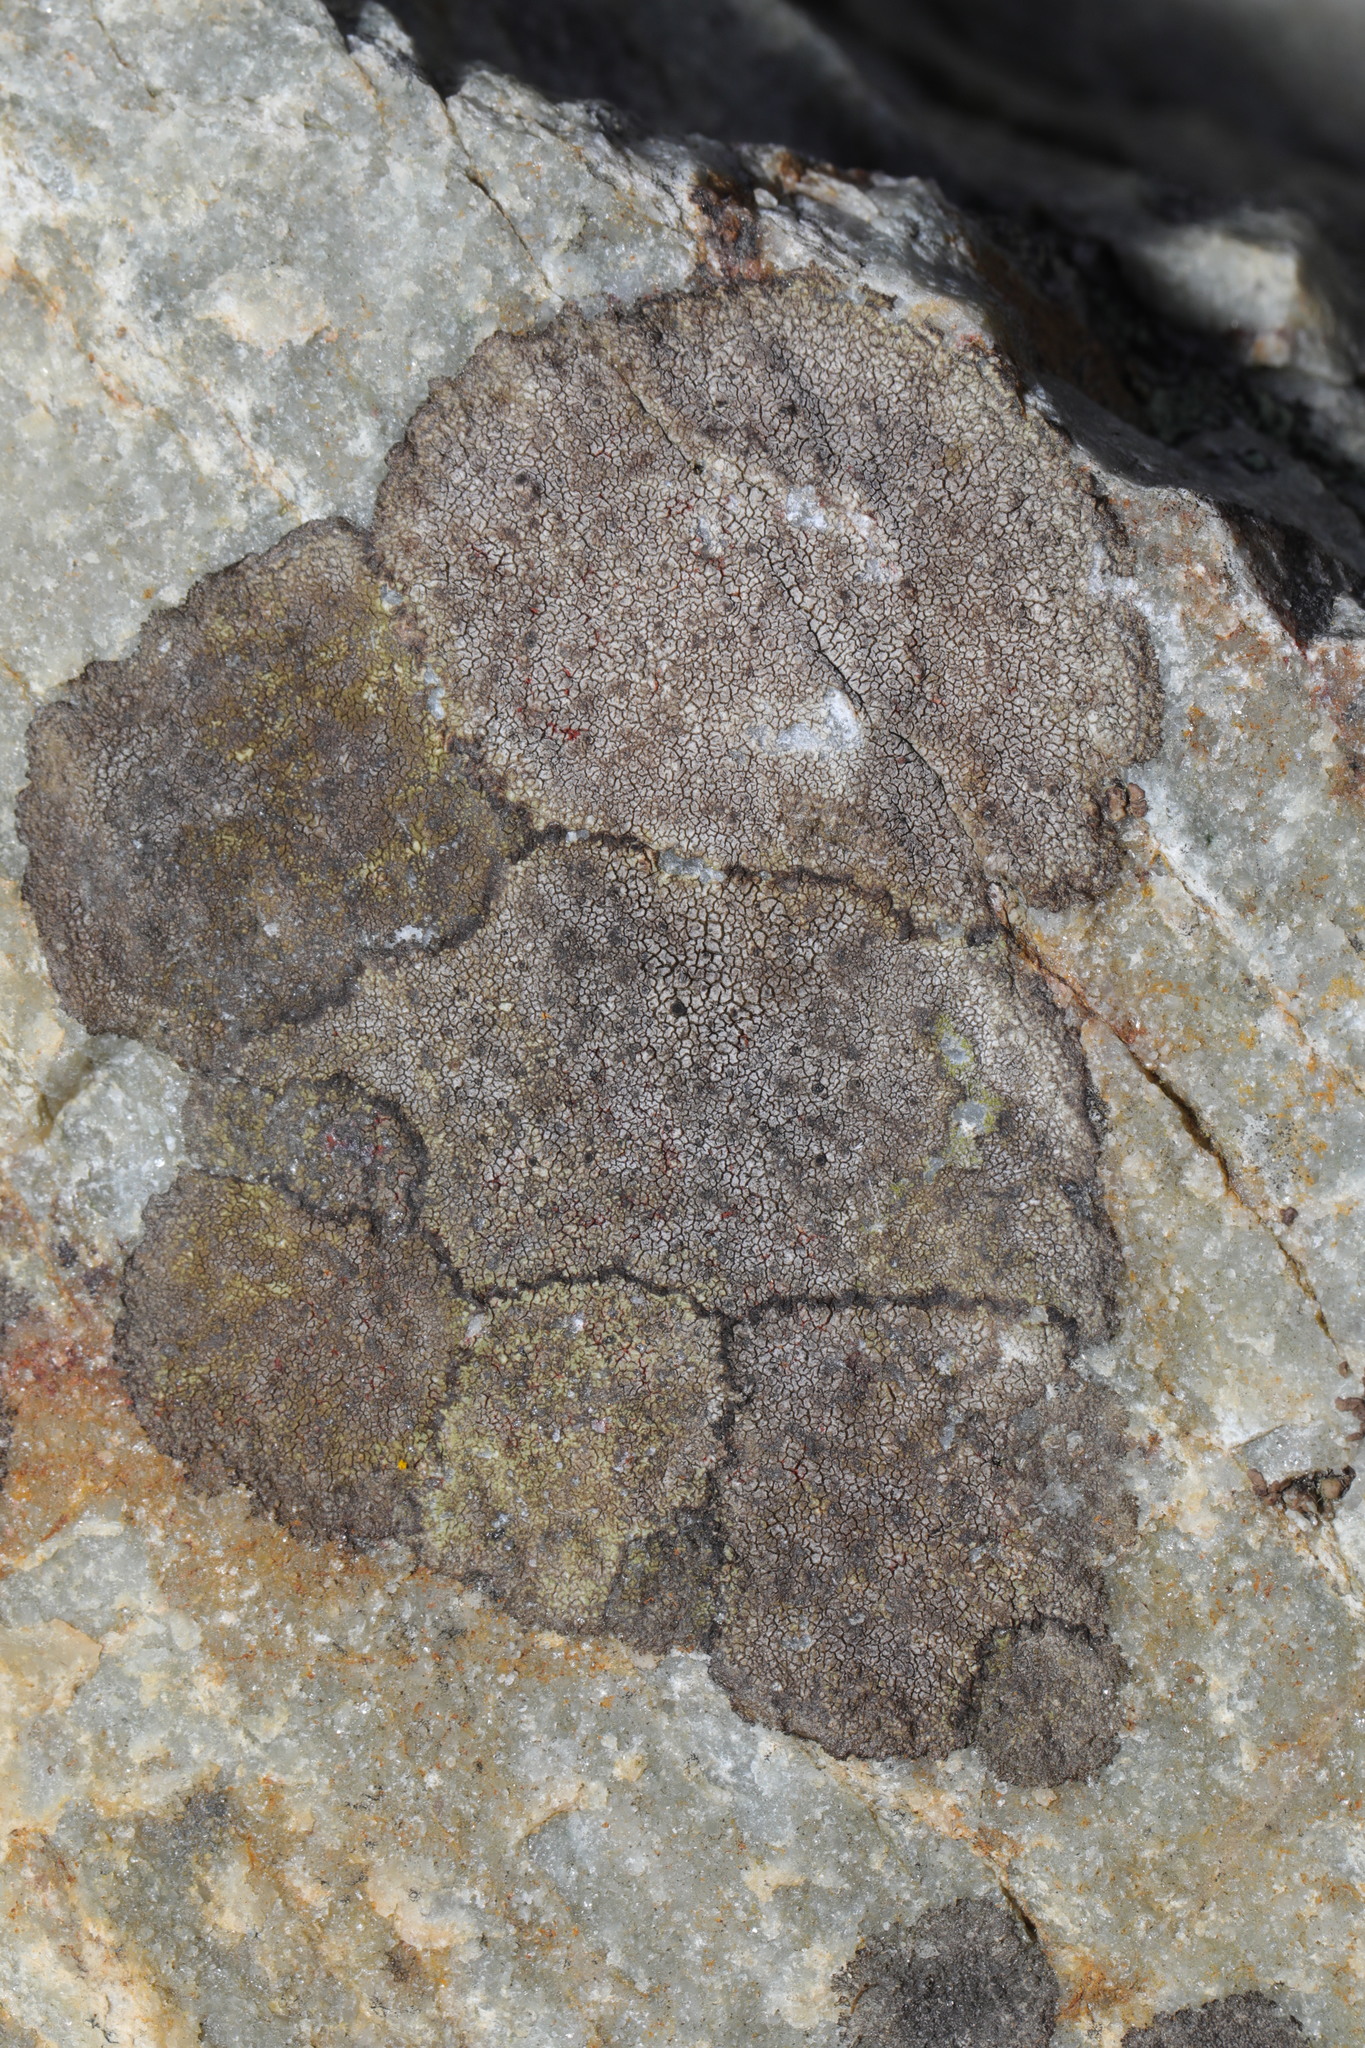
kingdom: Fungi
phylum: Ascomycota
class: Lecanoromycetes
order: Umbilicariales
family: Fuscideaceae
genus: Fuscidea
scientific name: Fuscidea cyathoides
